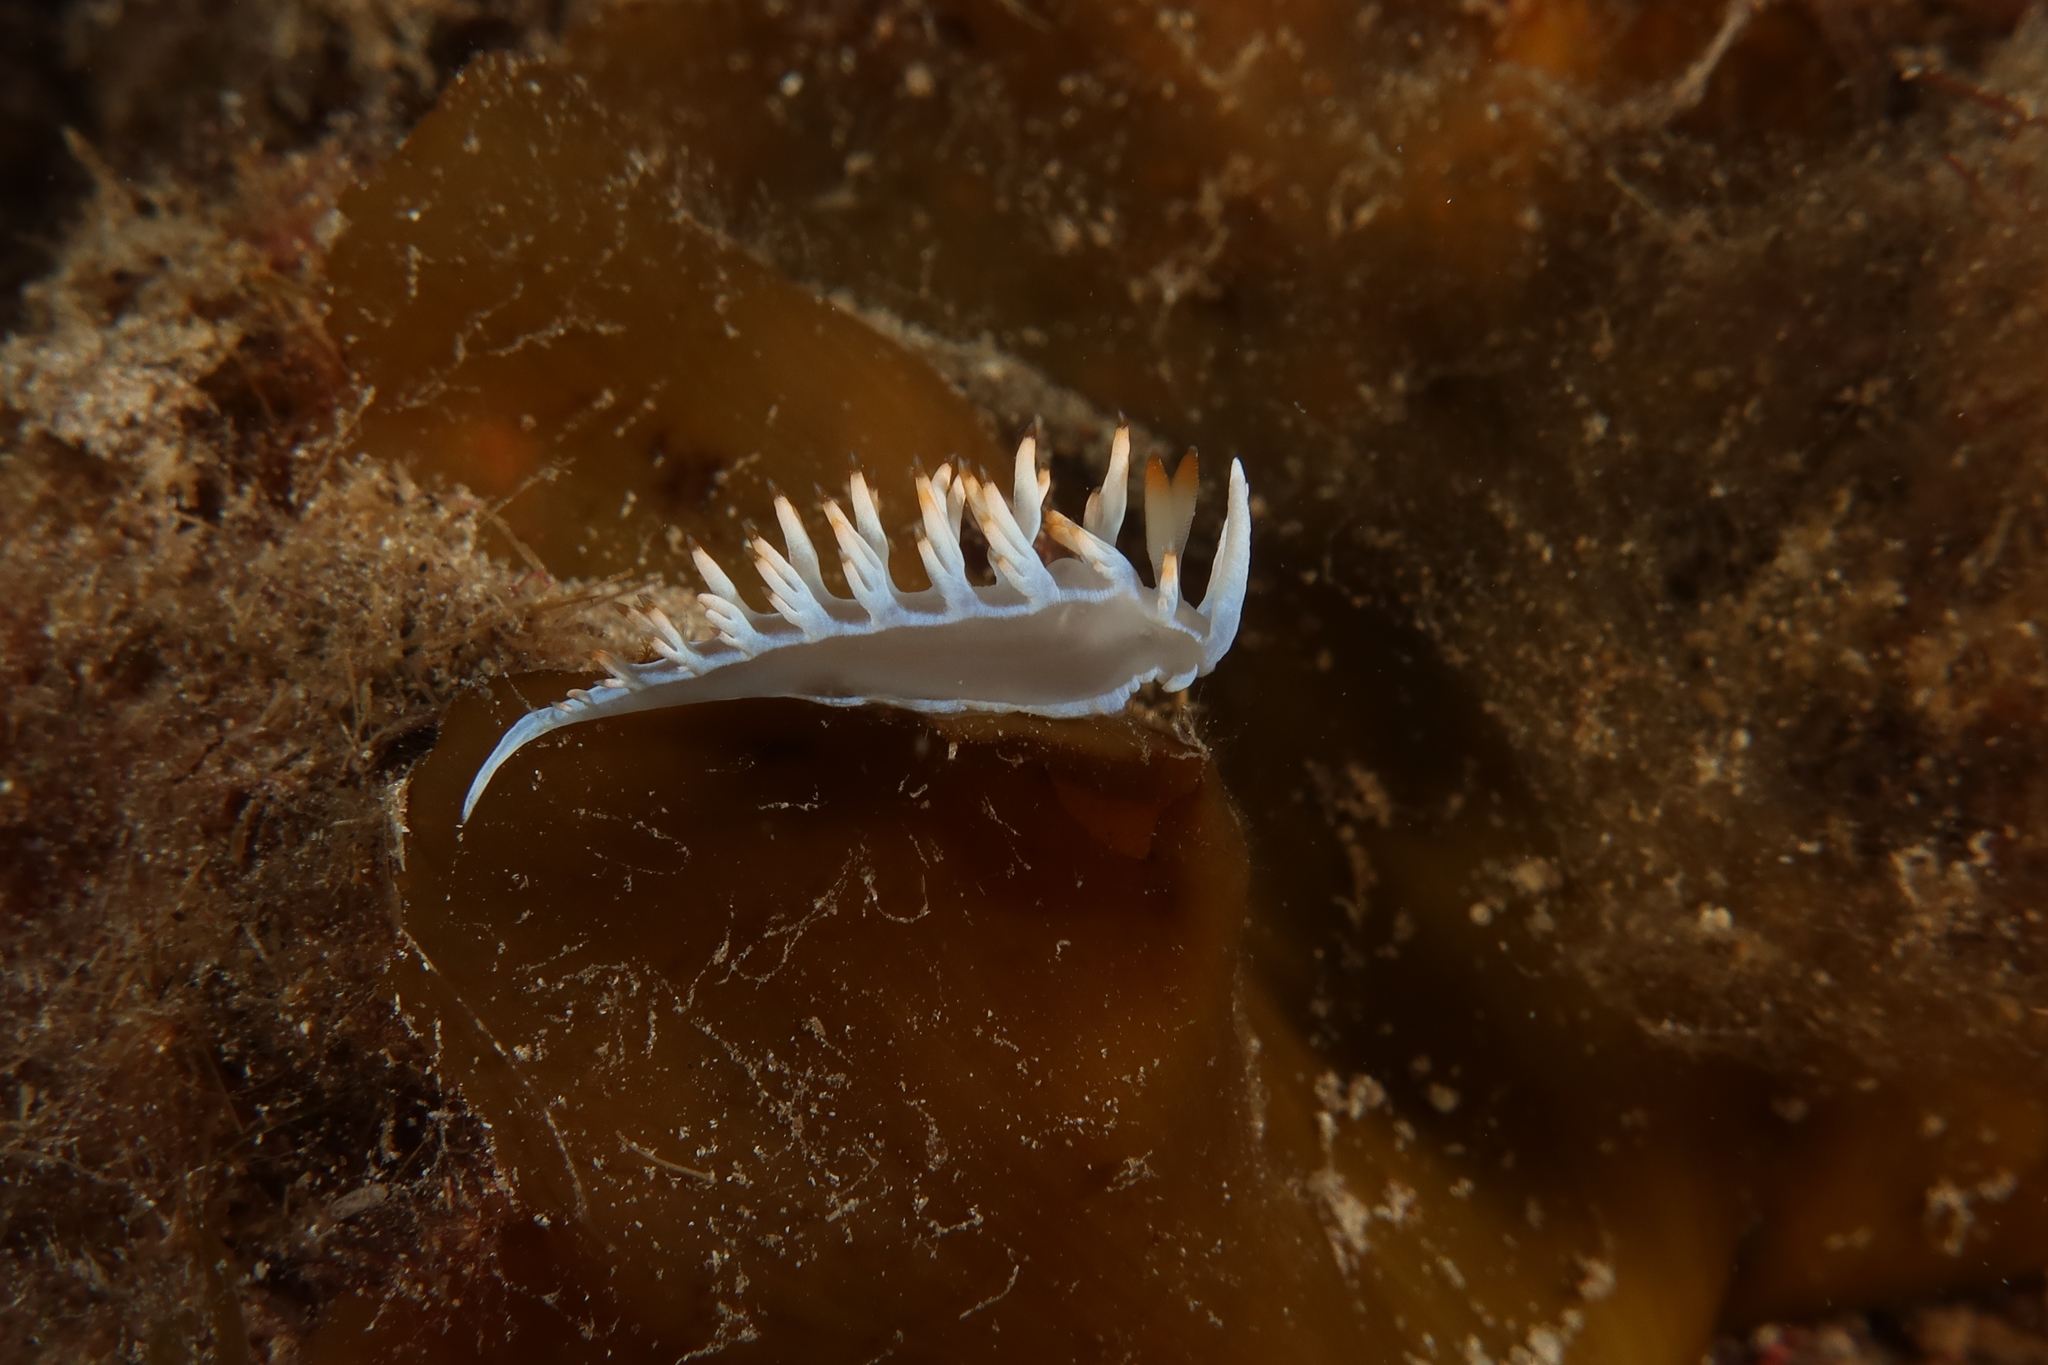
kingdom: Animalia
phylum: Mollusca
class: Gastropoda
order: Nudibranchia
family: Samlidae
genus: Luisella
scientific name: Luisella babai
